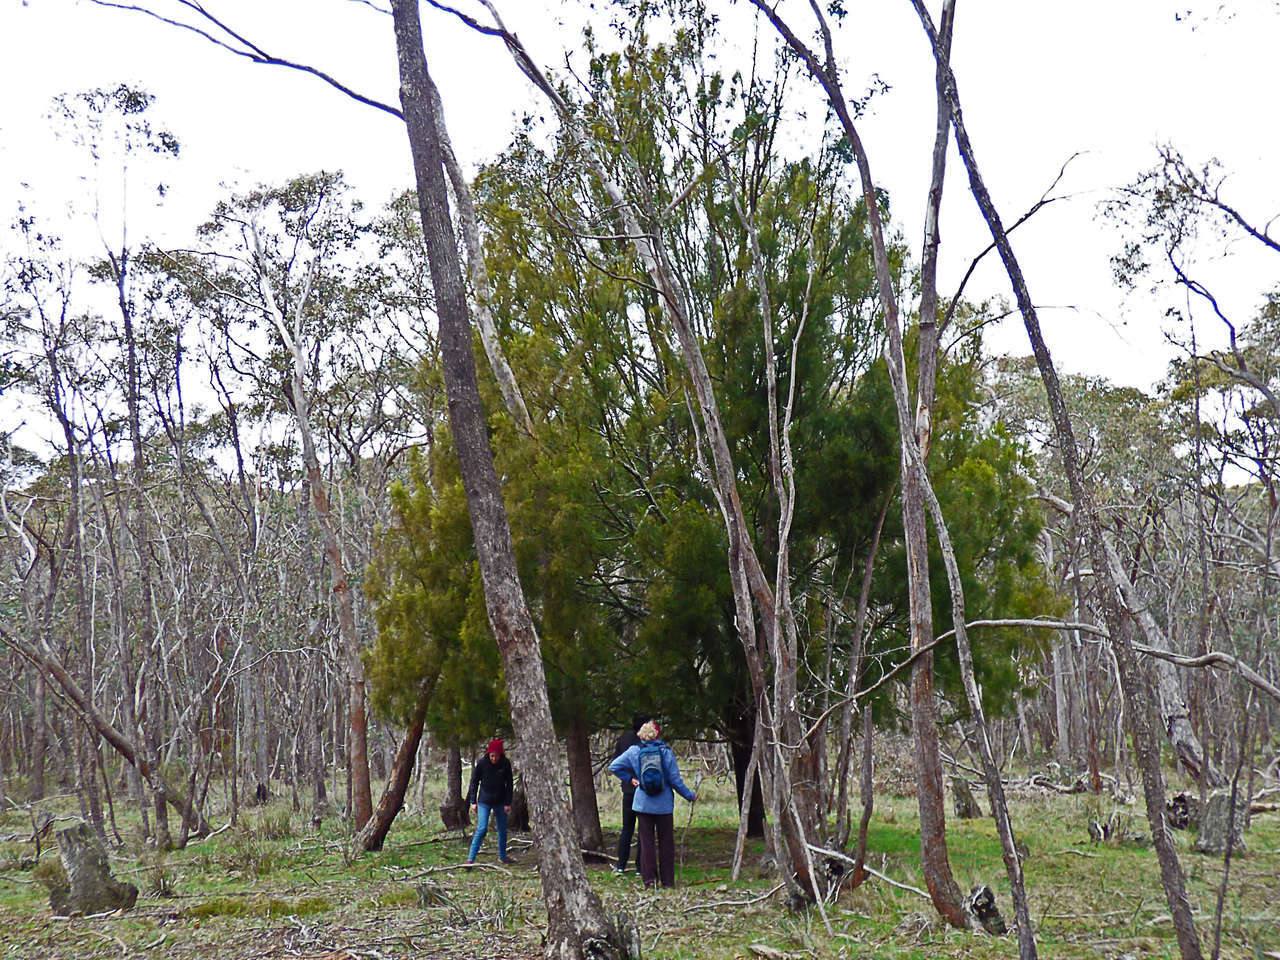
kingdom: Plantae
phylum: Tracheophyta
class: Magnoliopsida
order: Santalales
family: Santalaceae
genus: Exocarpos
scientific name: Exocarpos cupressiformis
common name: Cherry ballart
